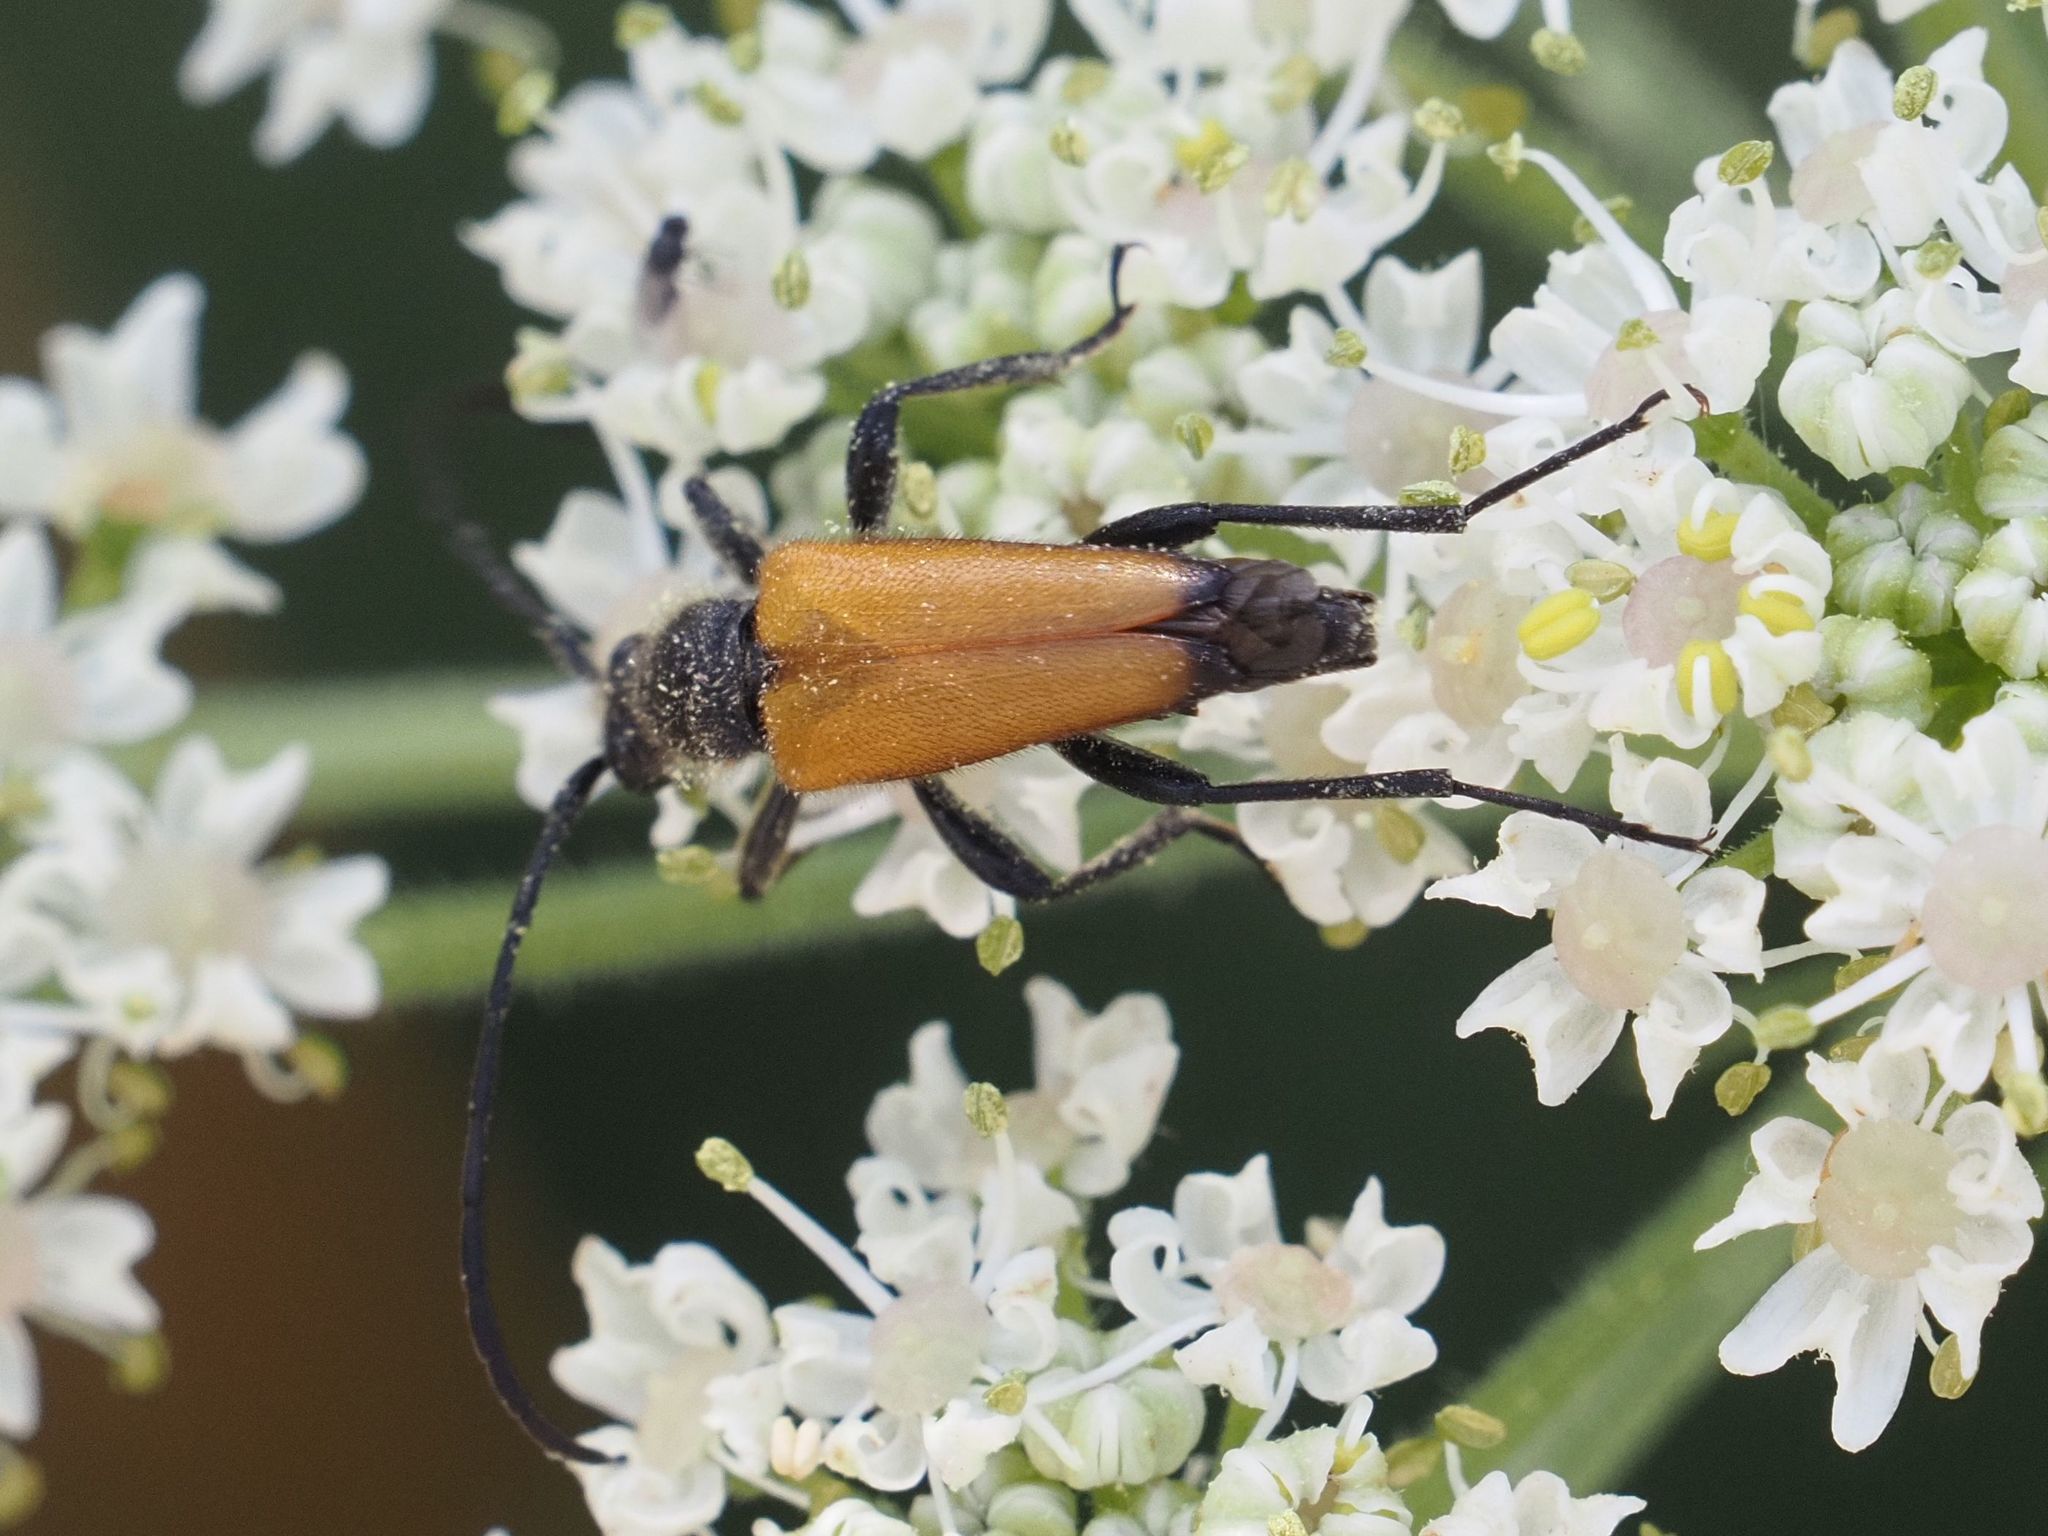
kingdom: Animalia
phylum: Arthropoda
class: Insecta
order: Coleoptera
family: Cerambycidae
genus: Paracorymbia
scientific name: Paracorymbia fulva
